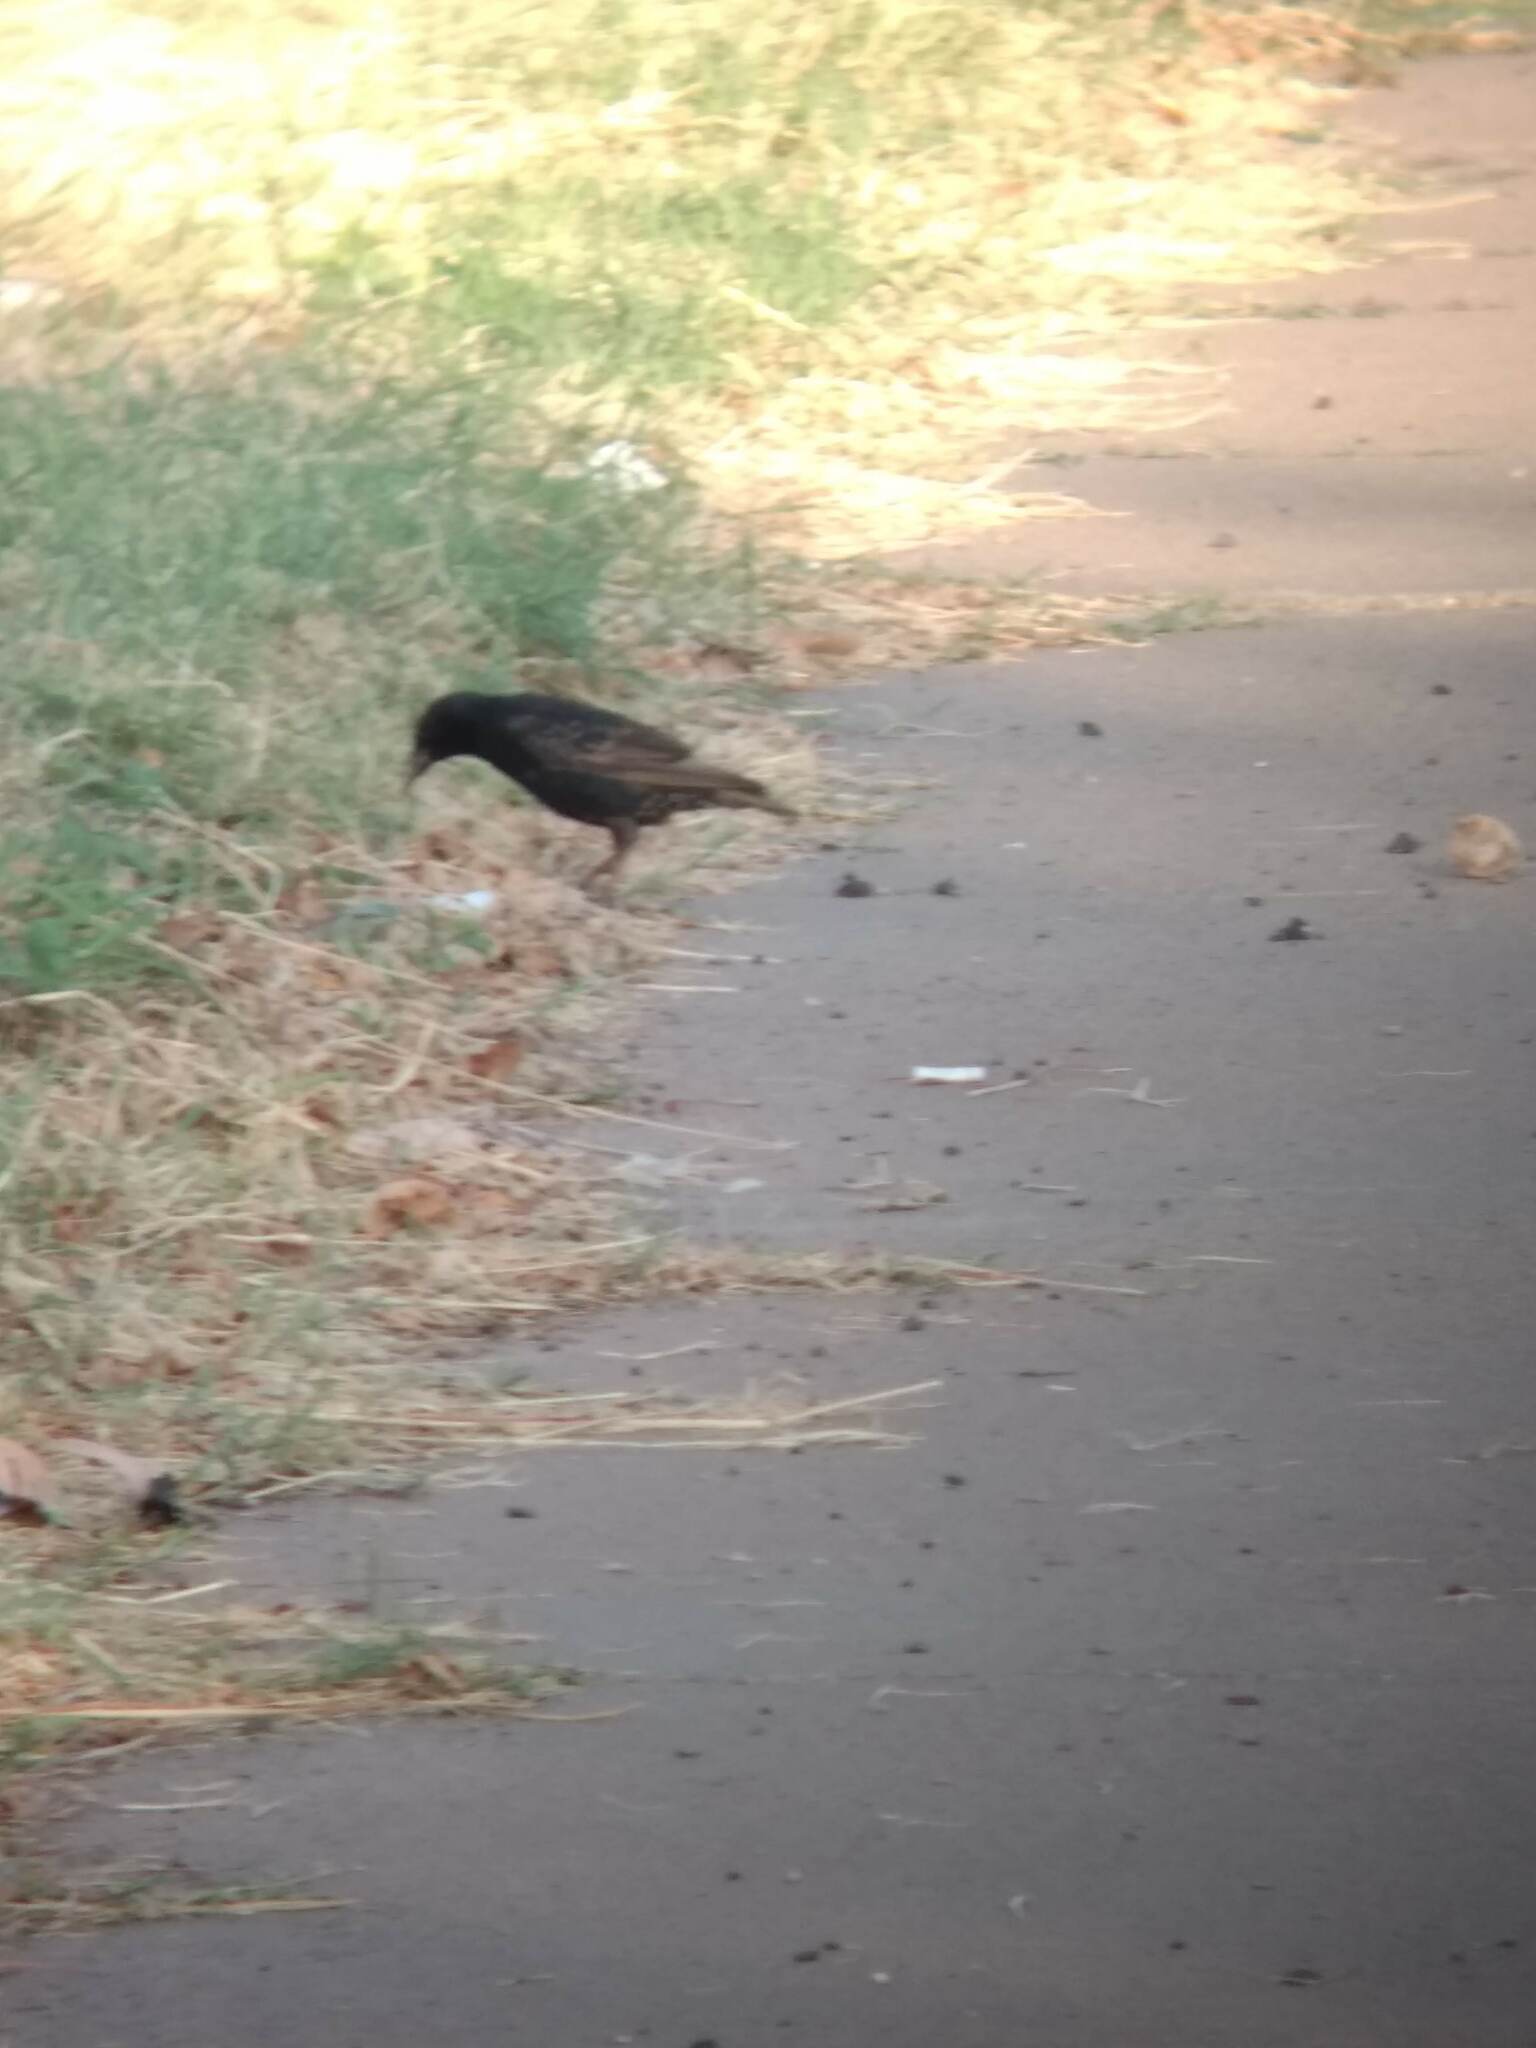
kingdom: Animalia
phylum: Chordata
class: Aves
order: Passeriformes
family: Sturnidae
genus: Sturnus
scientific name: Sturnus vulgaris
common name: Common starling
